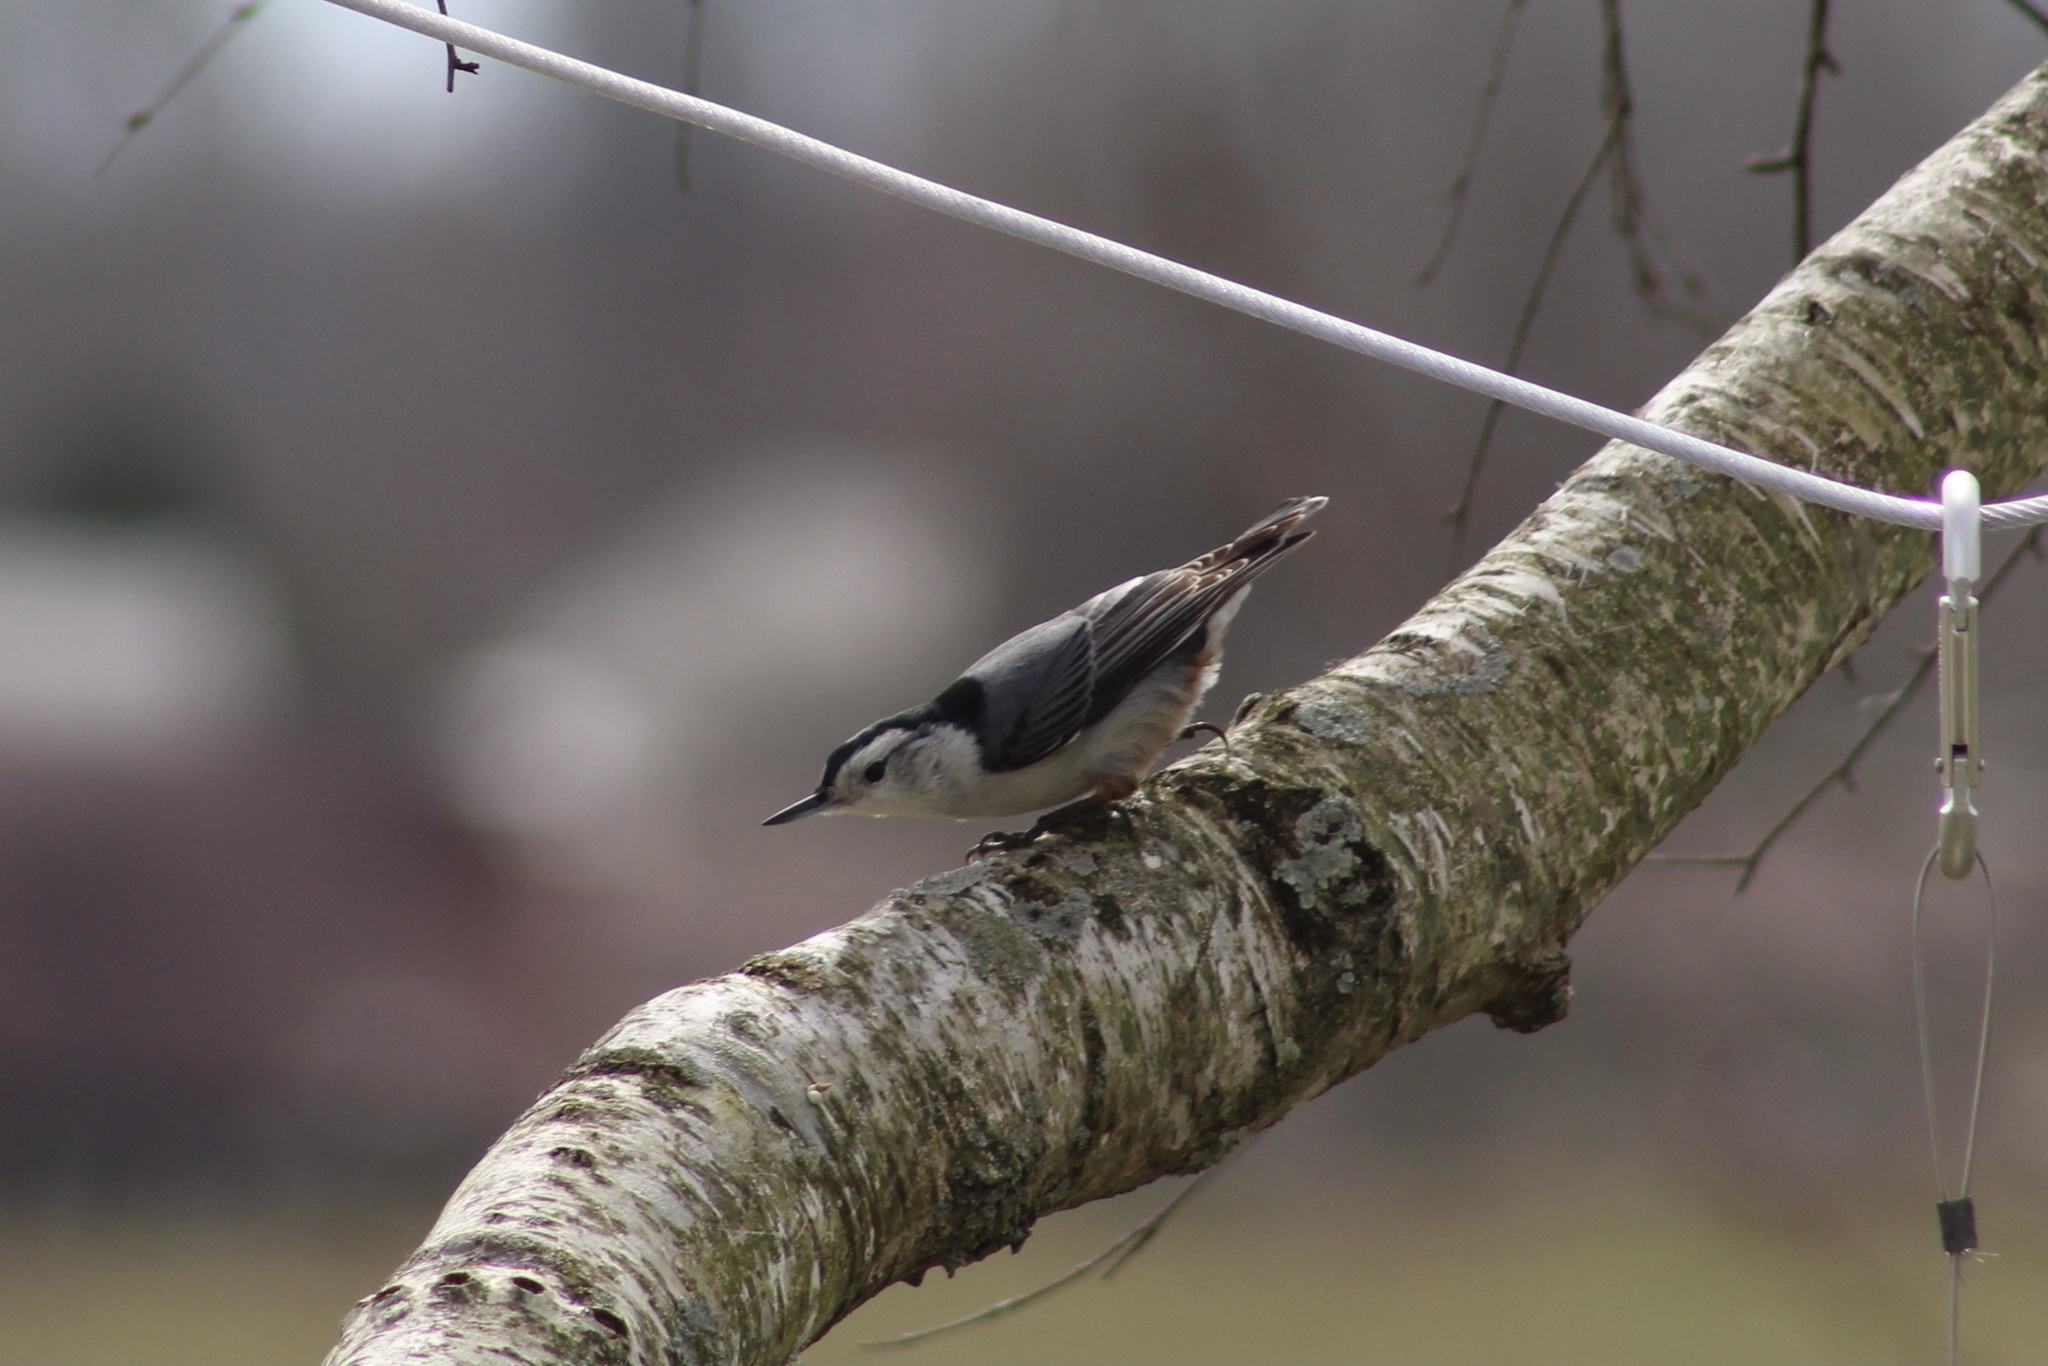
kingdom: Animalia
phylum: Chordata
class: Aves
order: Passeriformes
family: Sittidae
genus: Sitta
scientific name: Sitta carolinensis
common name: White-breasted nuthatch
